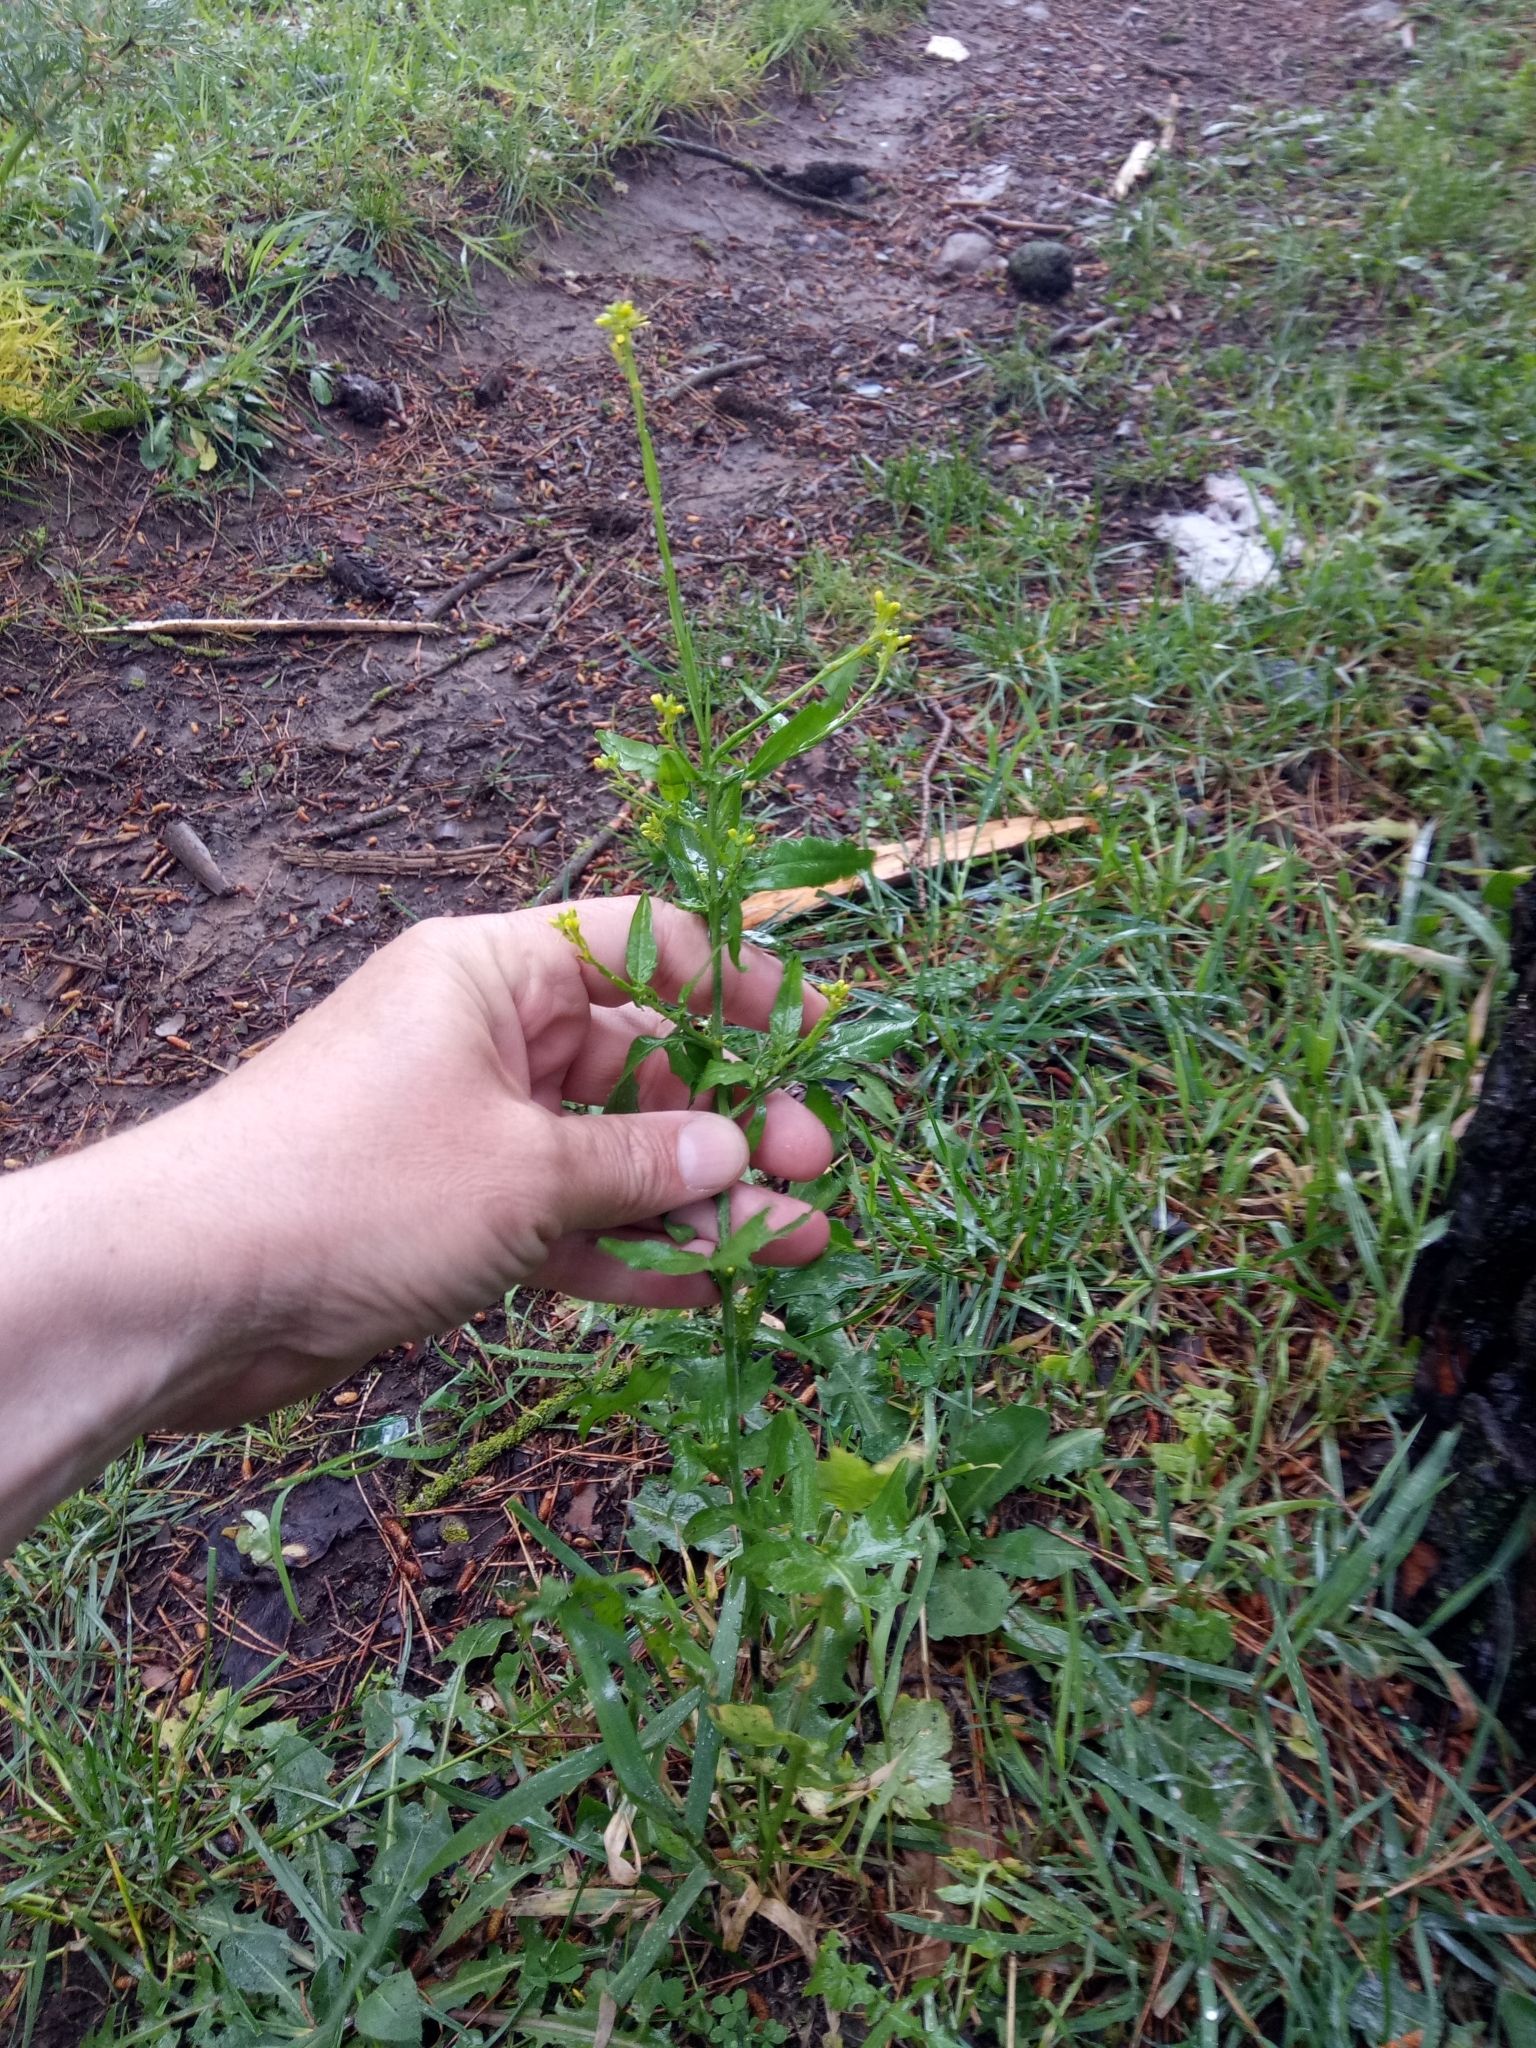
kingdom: Plantae
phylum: Tracheophyta
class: Magnoliopsida
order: Brassicales
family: Brassicaceae
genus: Sisymbrium
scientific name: Sisymbrium officinale
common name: Hedge mustard
